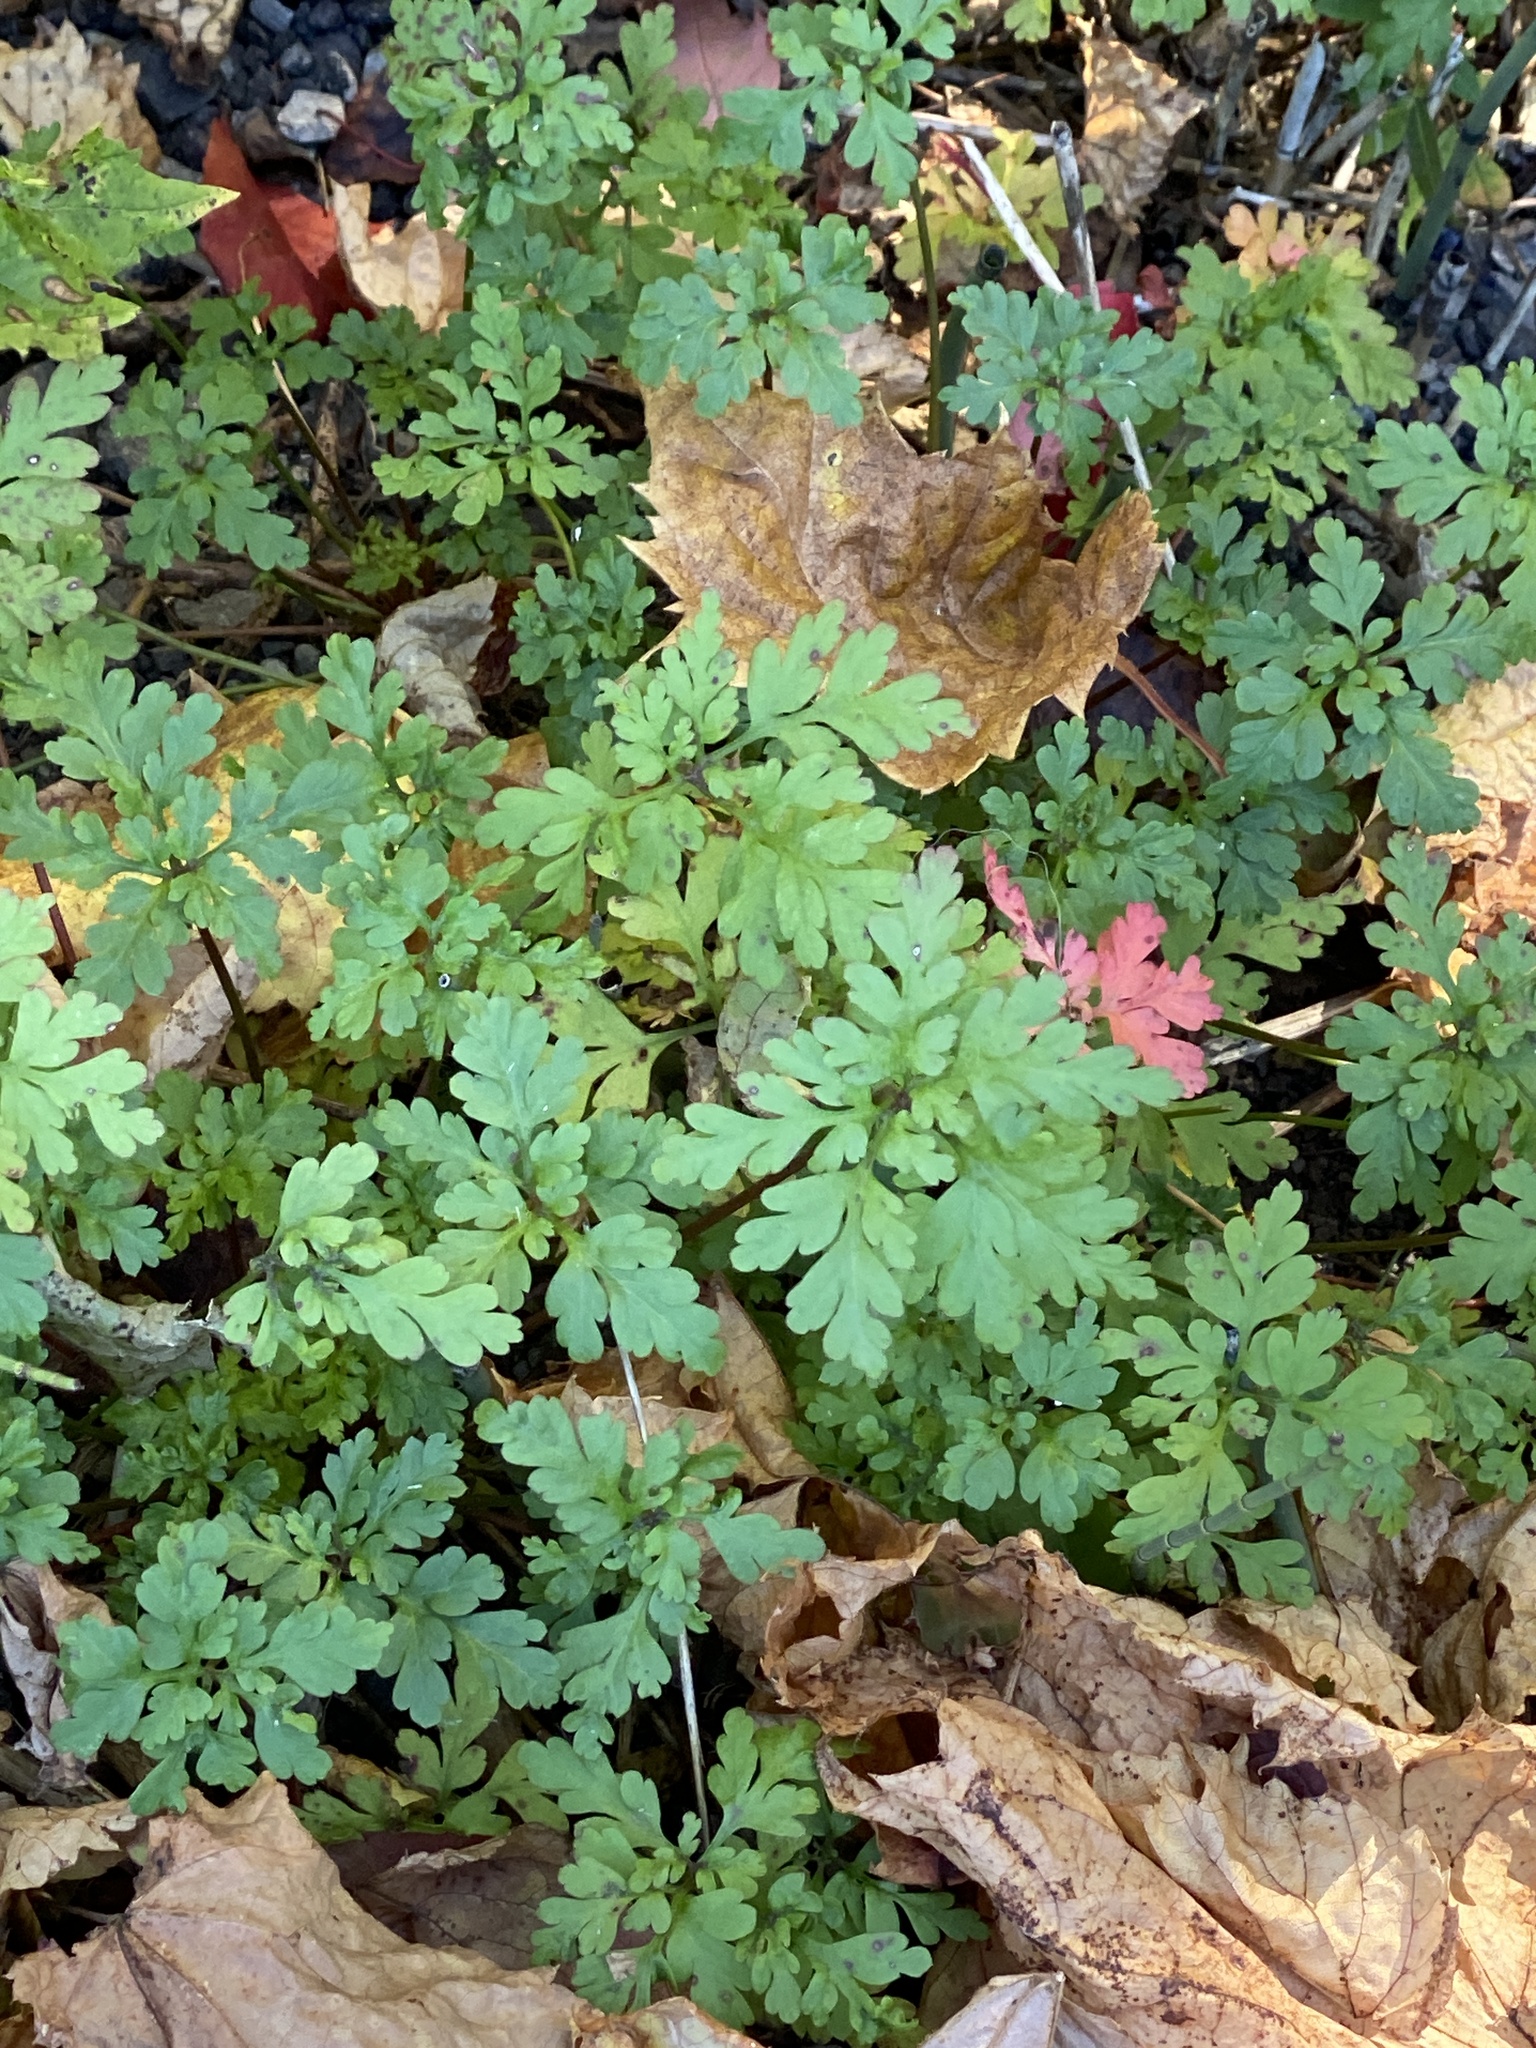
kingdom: Plantae
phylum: Tracheophyta
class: Magnoliopsida
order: Geraniales
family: Geraniaceae
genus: Geranium
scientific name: Geranium robertianum
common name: Herb-robert
